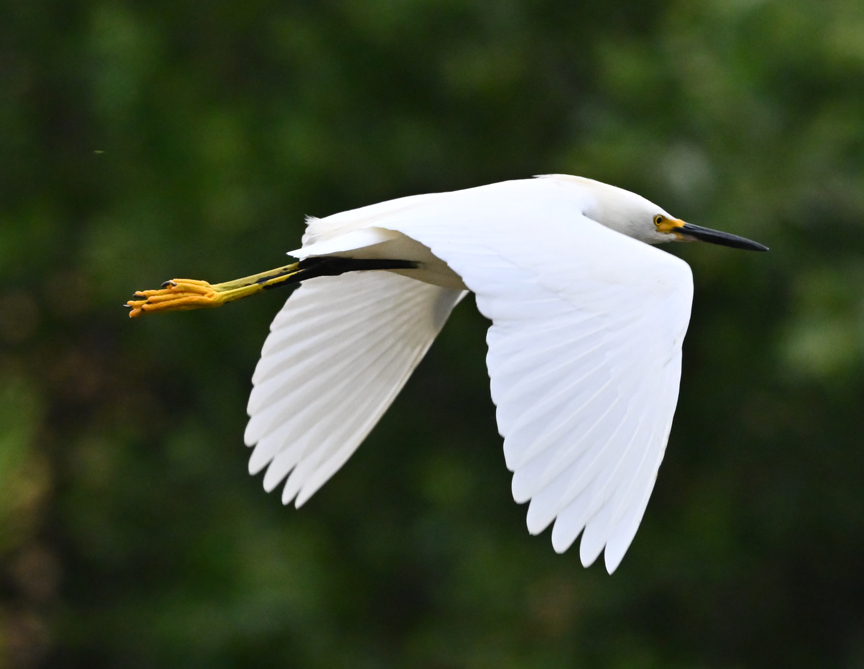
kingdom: Animalia
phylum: Chordata
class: Aves
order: Pelecaniformes
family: Ardeidae
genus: Egretta
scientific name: Egretta thula
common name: Snowy egret
